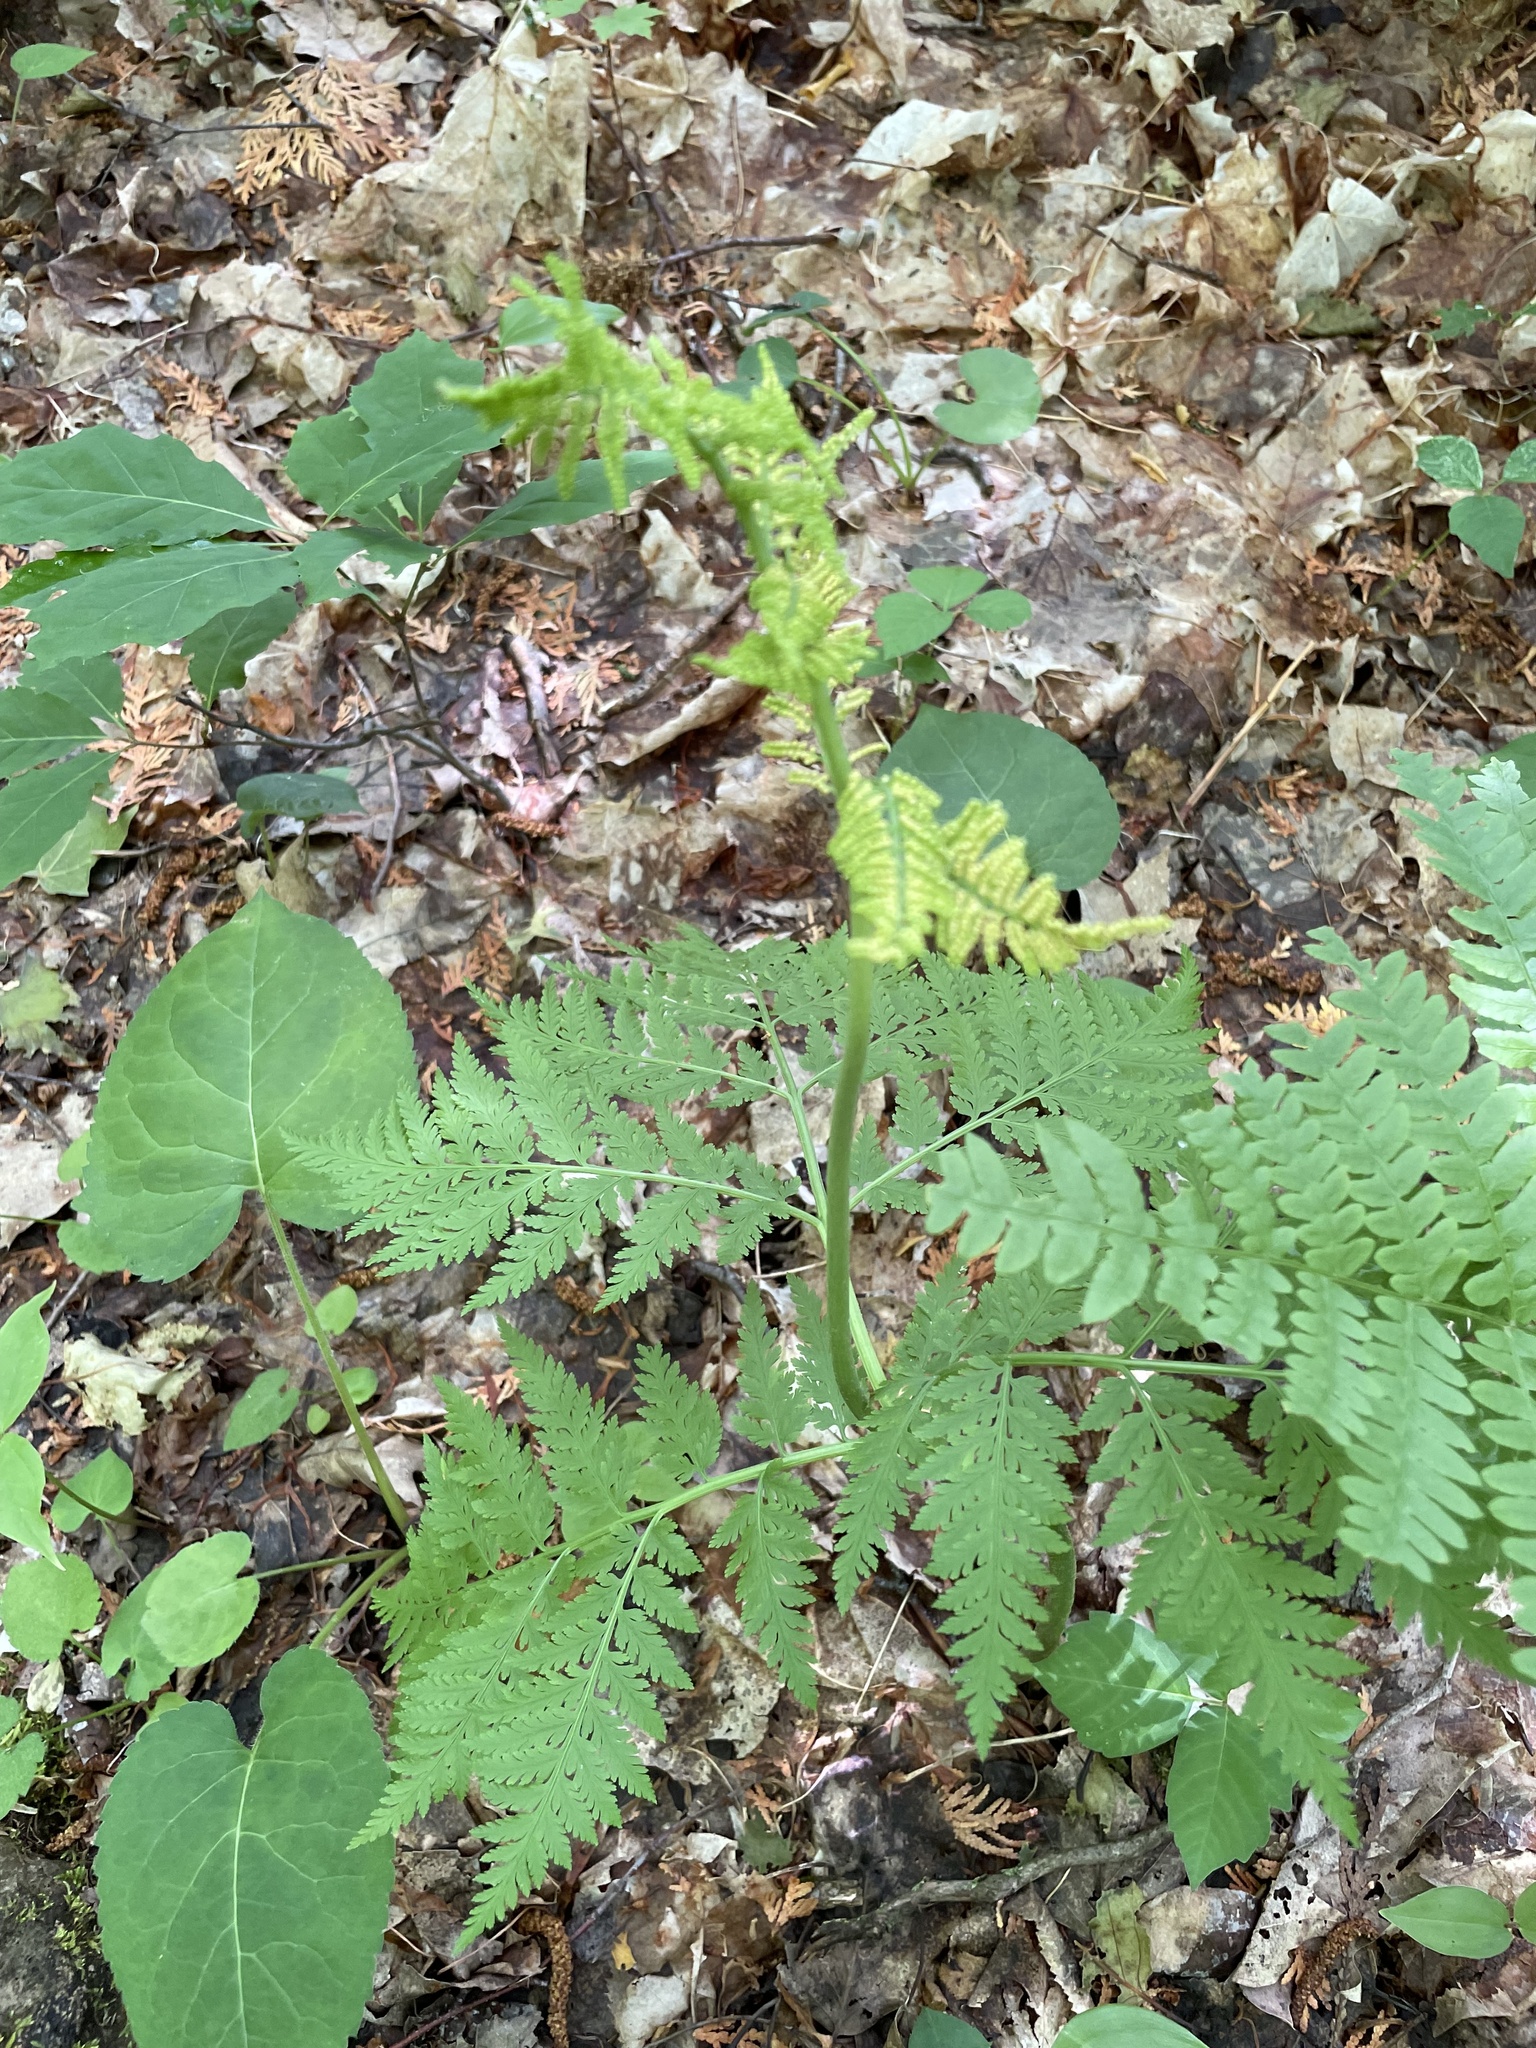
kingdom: Plantae
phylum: Tracheophyta
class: Polypodiopsida
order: Ophioglossales
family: Ophioglossaceae
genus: Botrypus
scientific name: Botrypus virginianus
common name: Common grapefern
